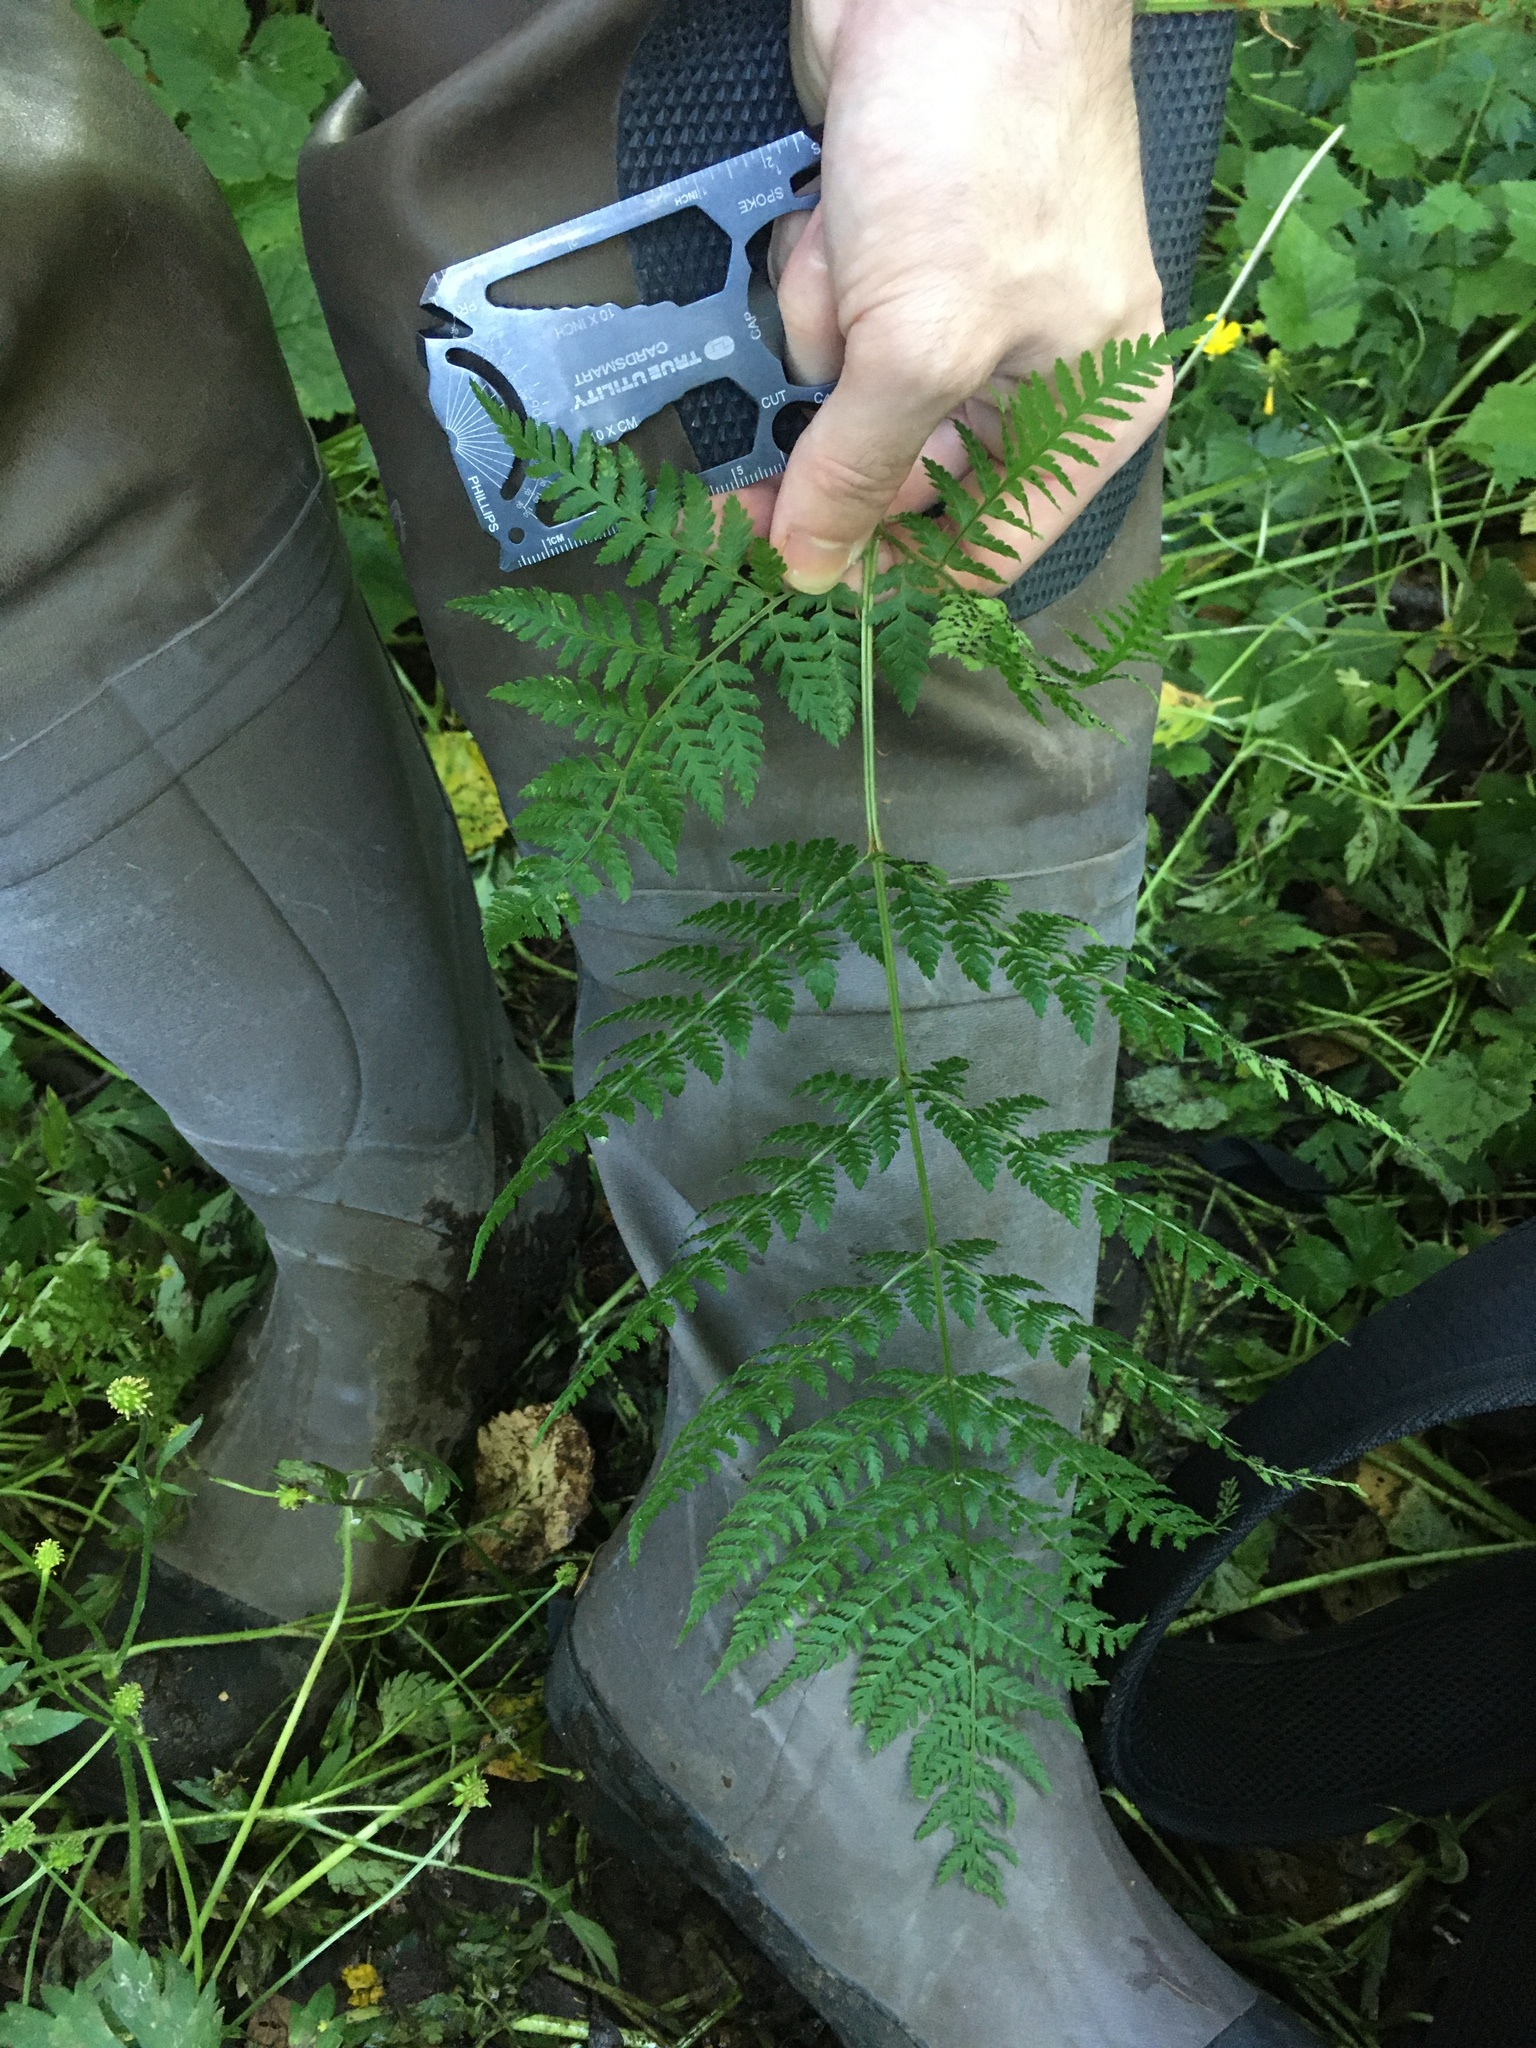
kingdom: Plantae
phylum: Tracheophyta
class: Polypodiopsida
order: Polypodiales
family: Dryopteridaceae
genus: Dryopteris
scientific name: Dryopteris expansa
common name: Northern buckler fern
